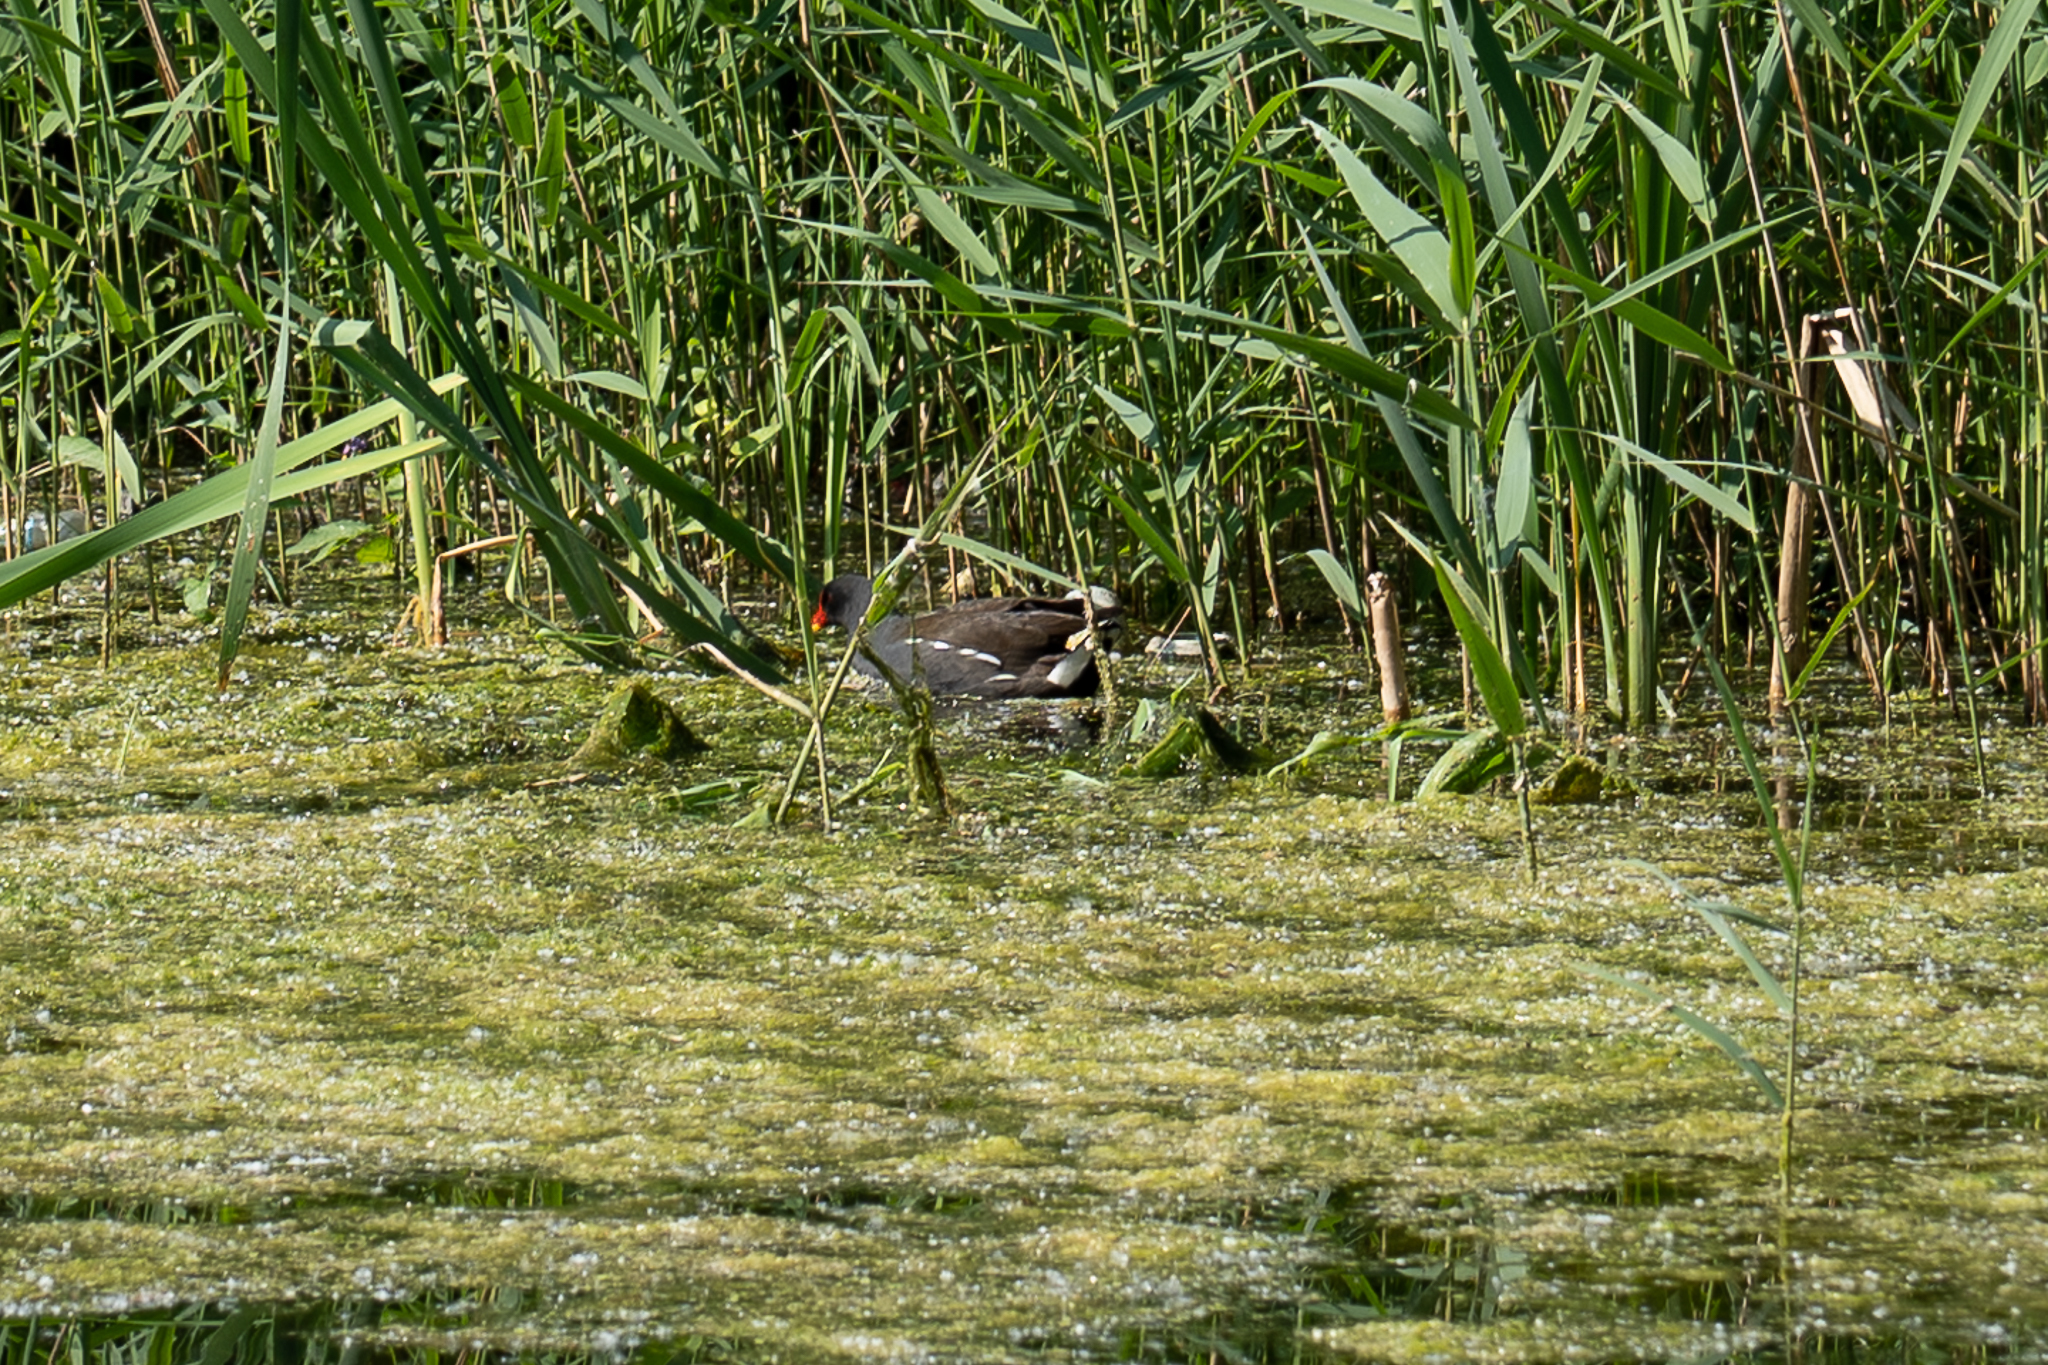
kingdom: Animalia
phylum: Chordata
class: Aves
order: Gruiformes
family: Rallidae
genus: Gallinula
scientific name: Gallinula chloropus
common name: Common moorhen
